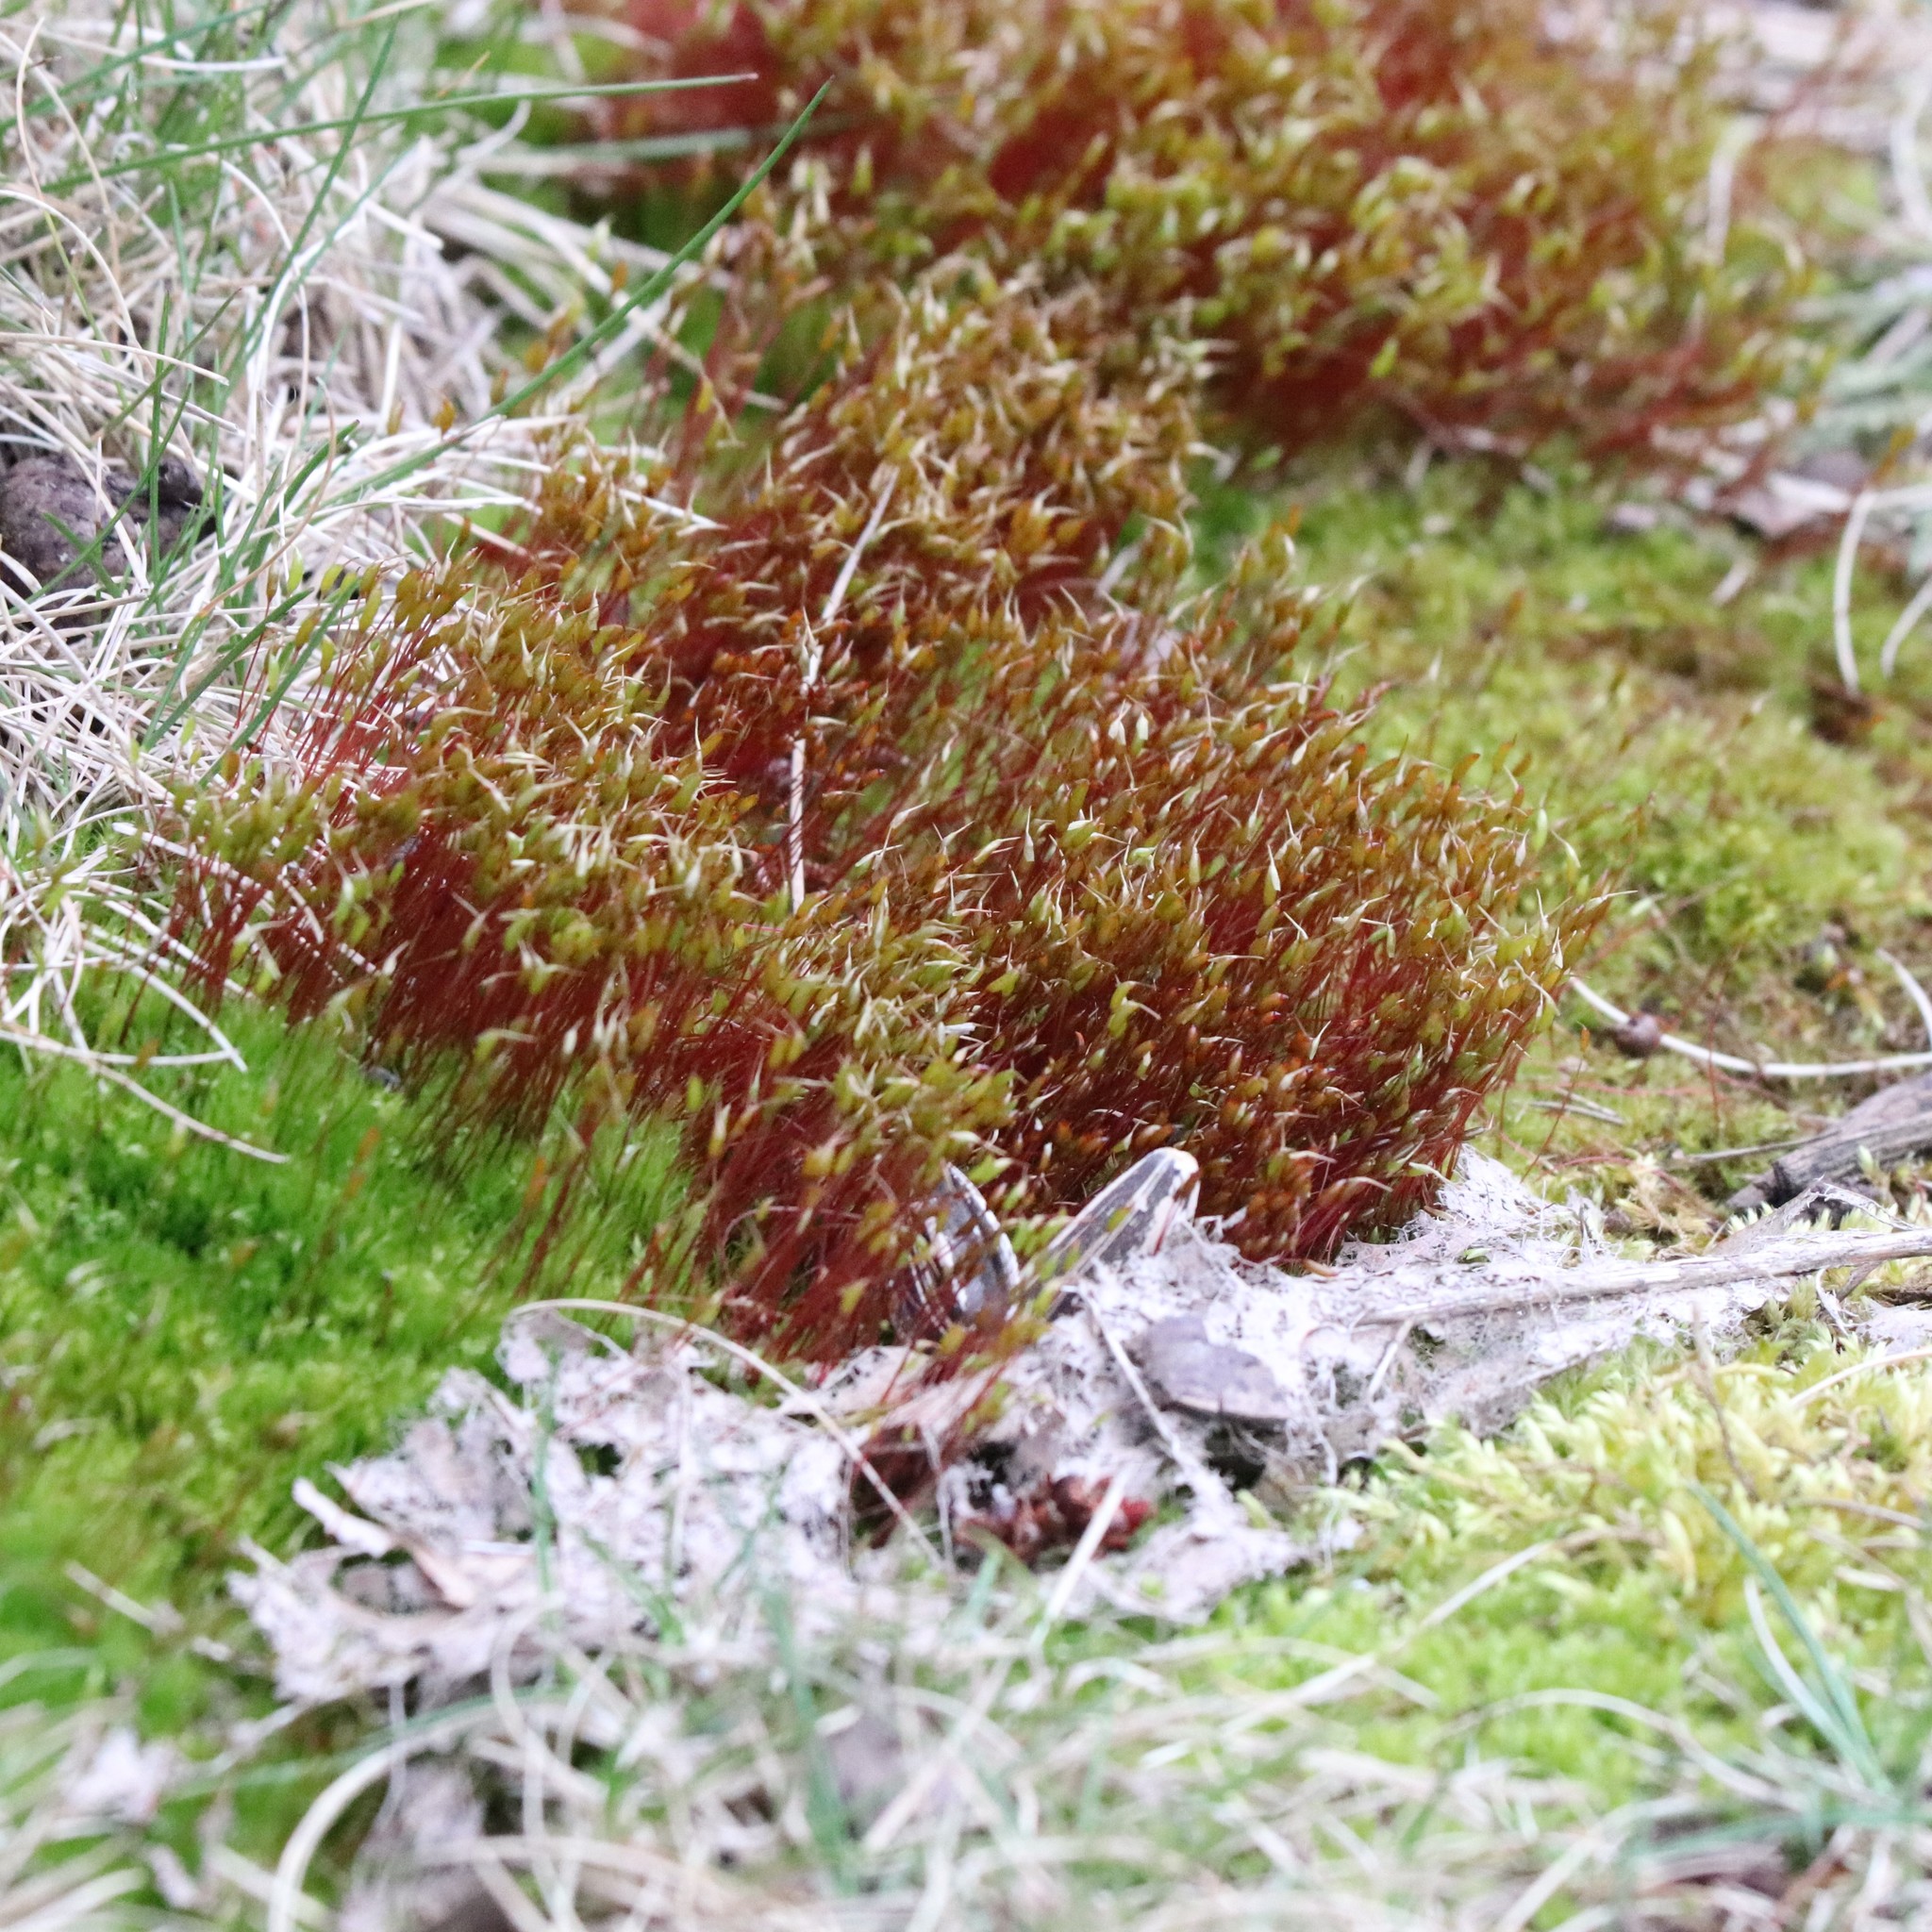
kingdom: Plantae
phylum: Bryophyta
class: Bryopsida
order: Dicranales
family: Ditrichaceae
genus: Ceratodon
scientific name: Ceratodon purpureus
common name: Redshank
